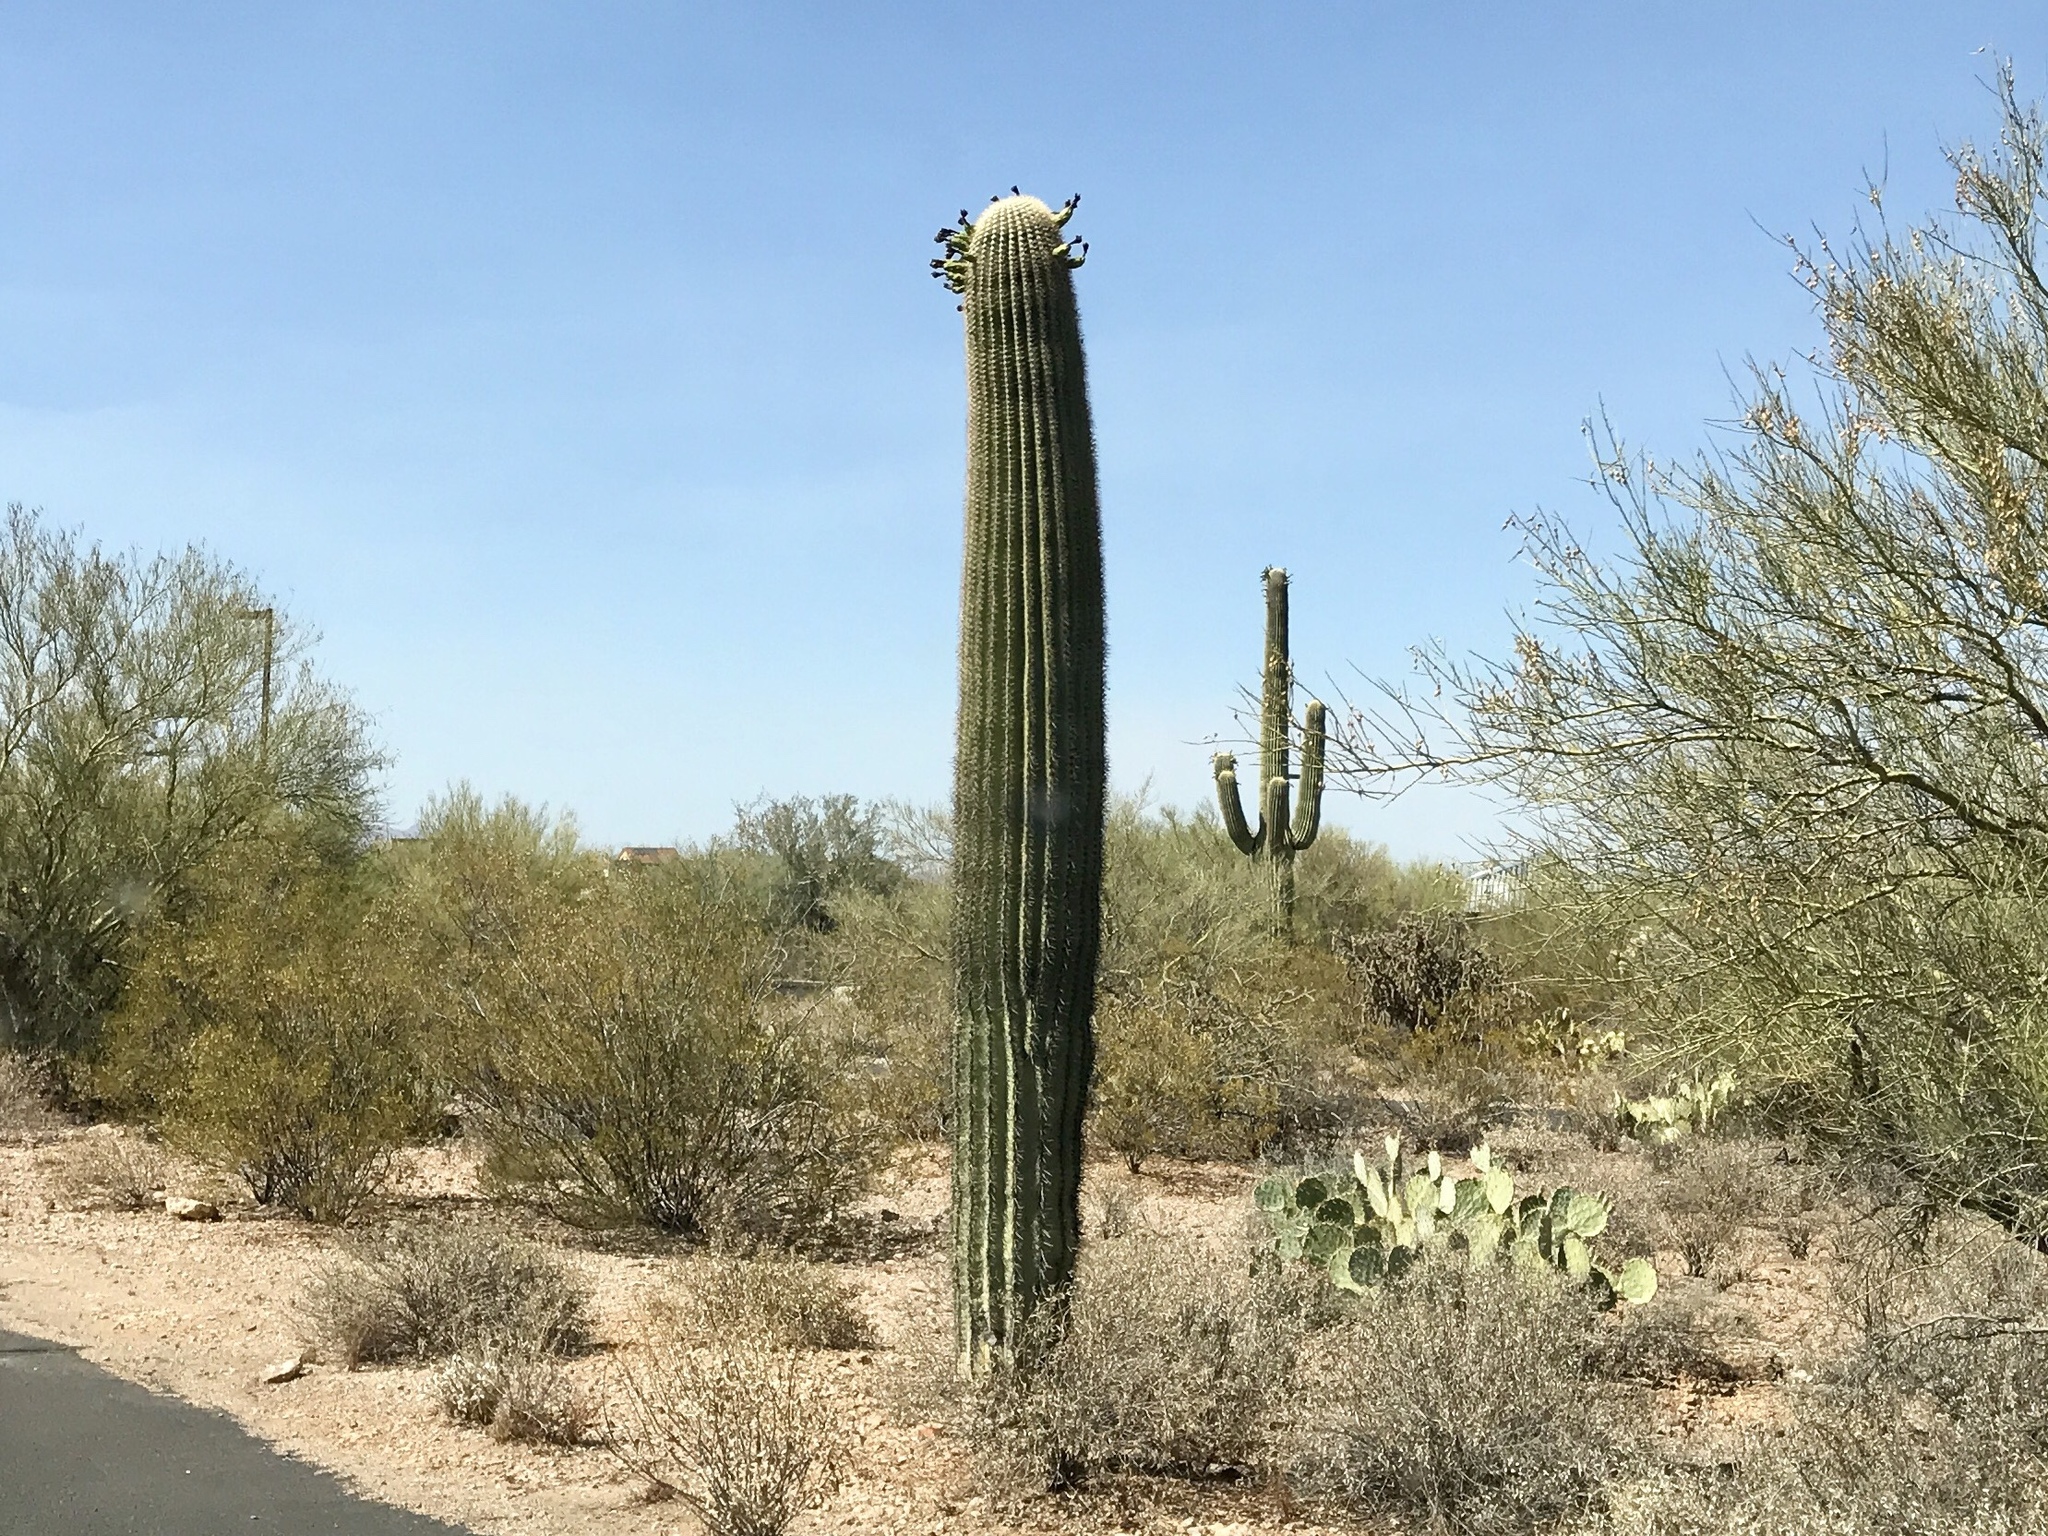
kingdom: Plantae
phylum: Tracheophyta
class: Magnoliopsida
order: Caryophyllales
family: Cactaceae
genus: Carnegiea
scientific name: Carnegiea gigantea
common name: Saguaro
